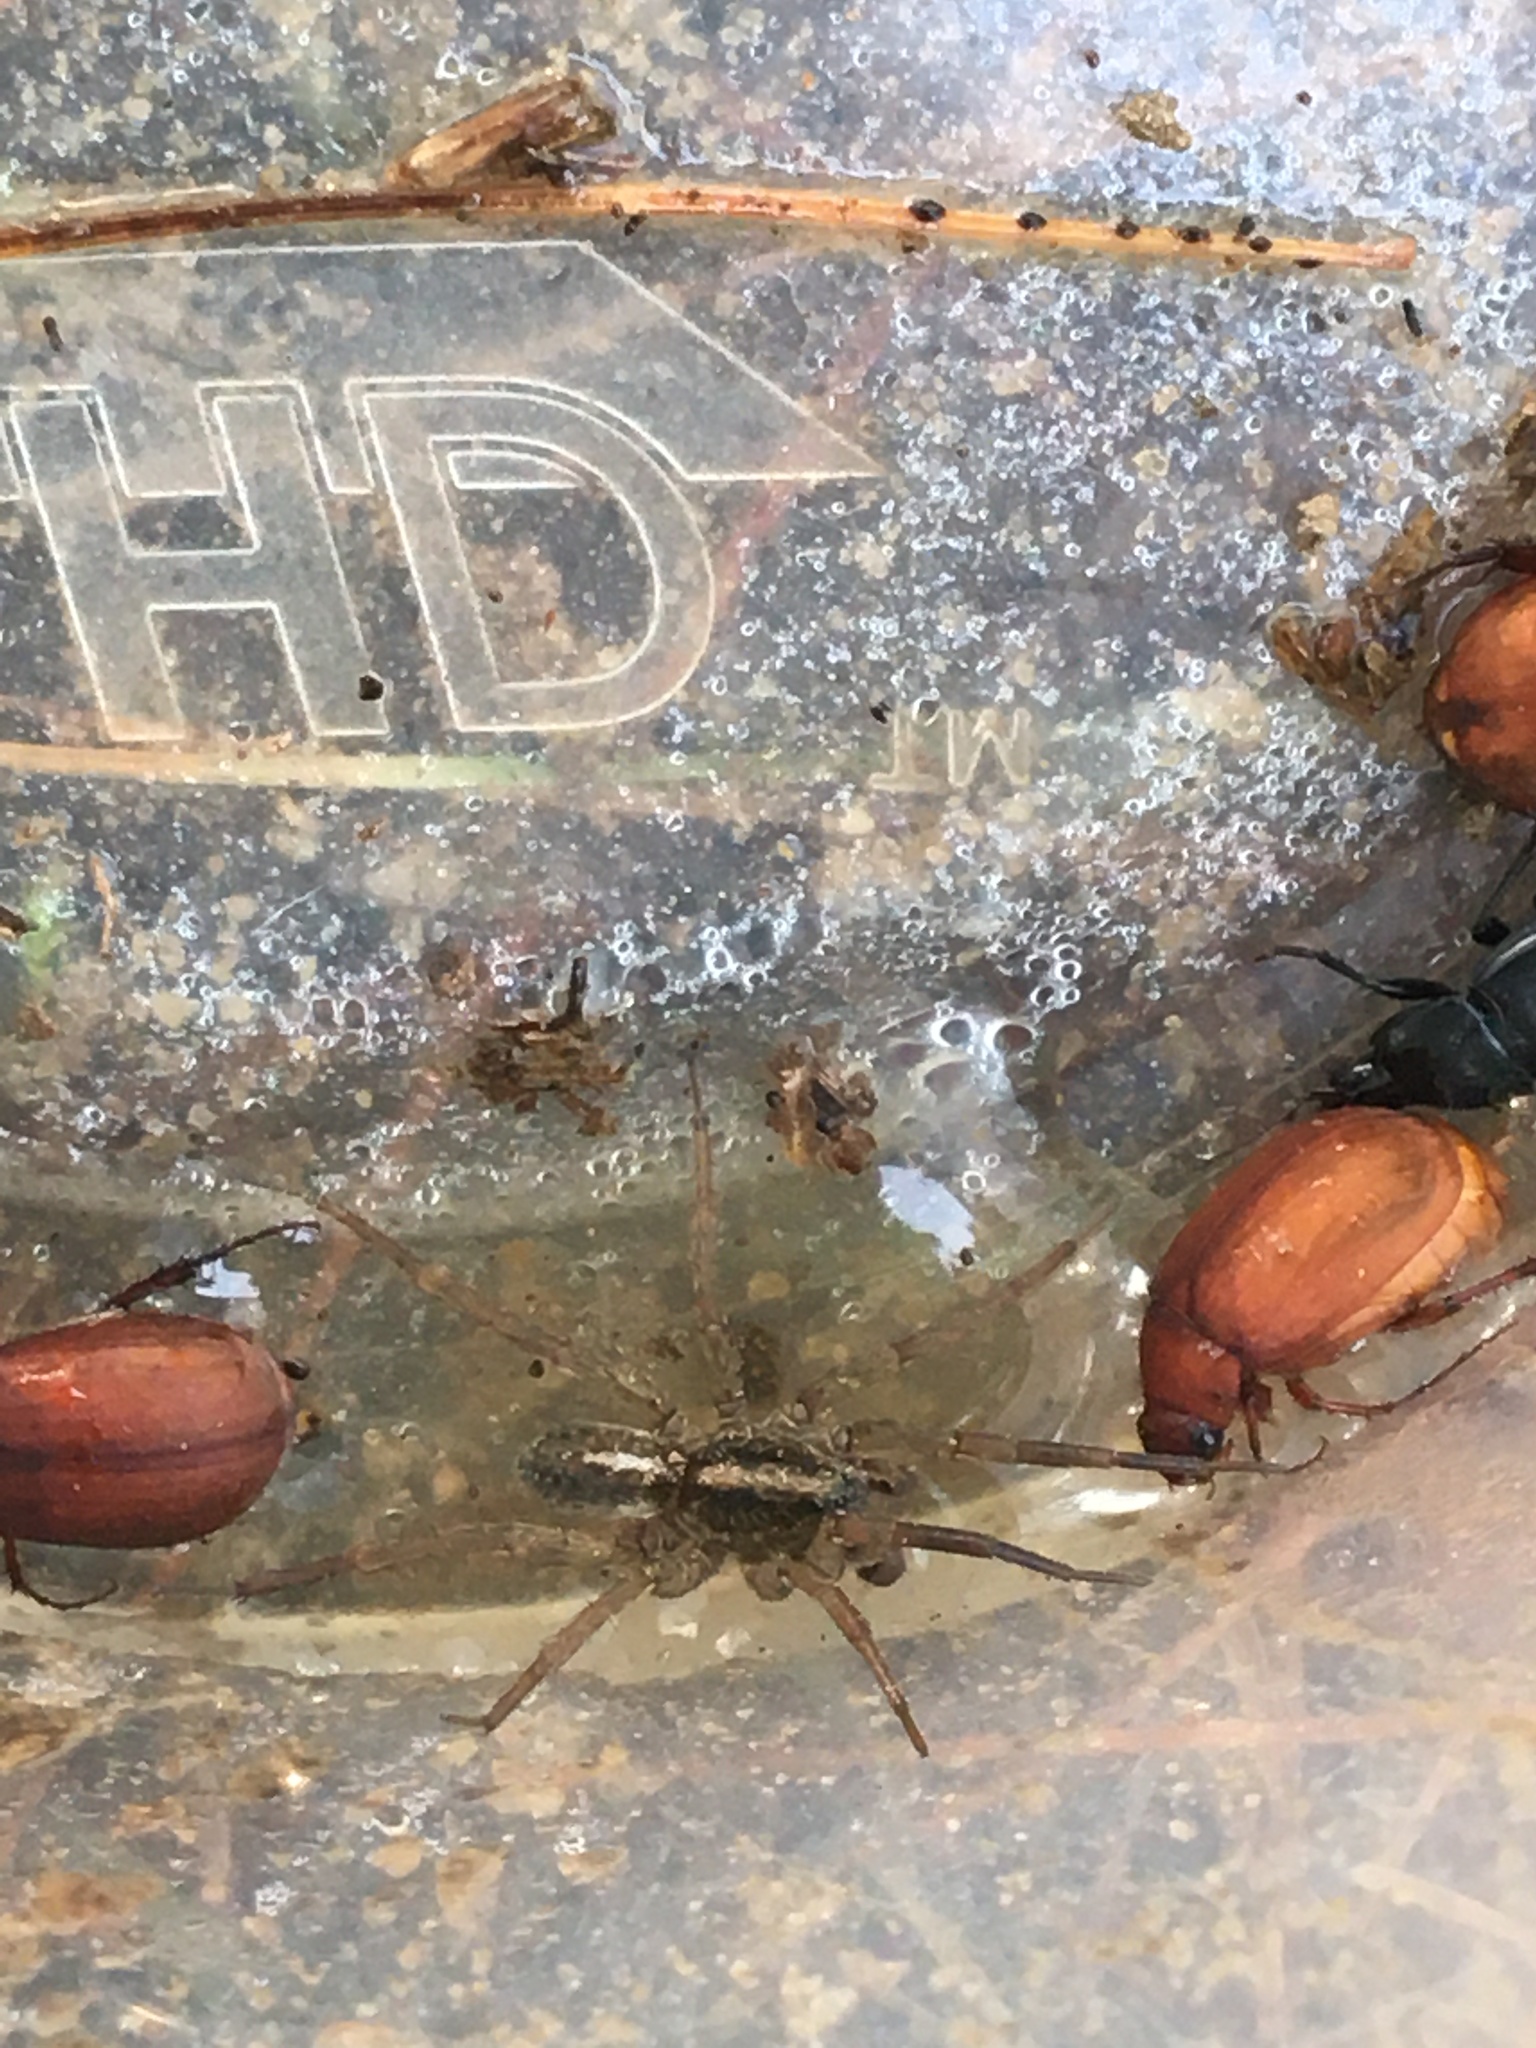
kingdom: Animalia
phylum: Arthropoda
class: Arachnida
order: Araneae
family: Lycosidae
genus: Trochosa
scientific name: Trochosa
